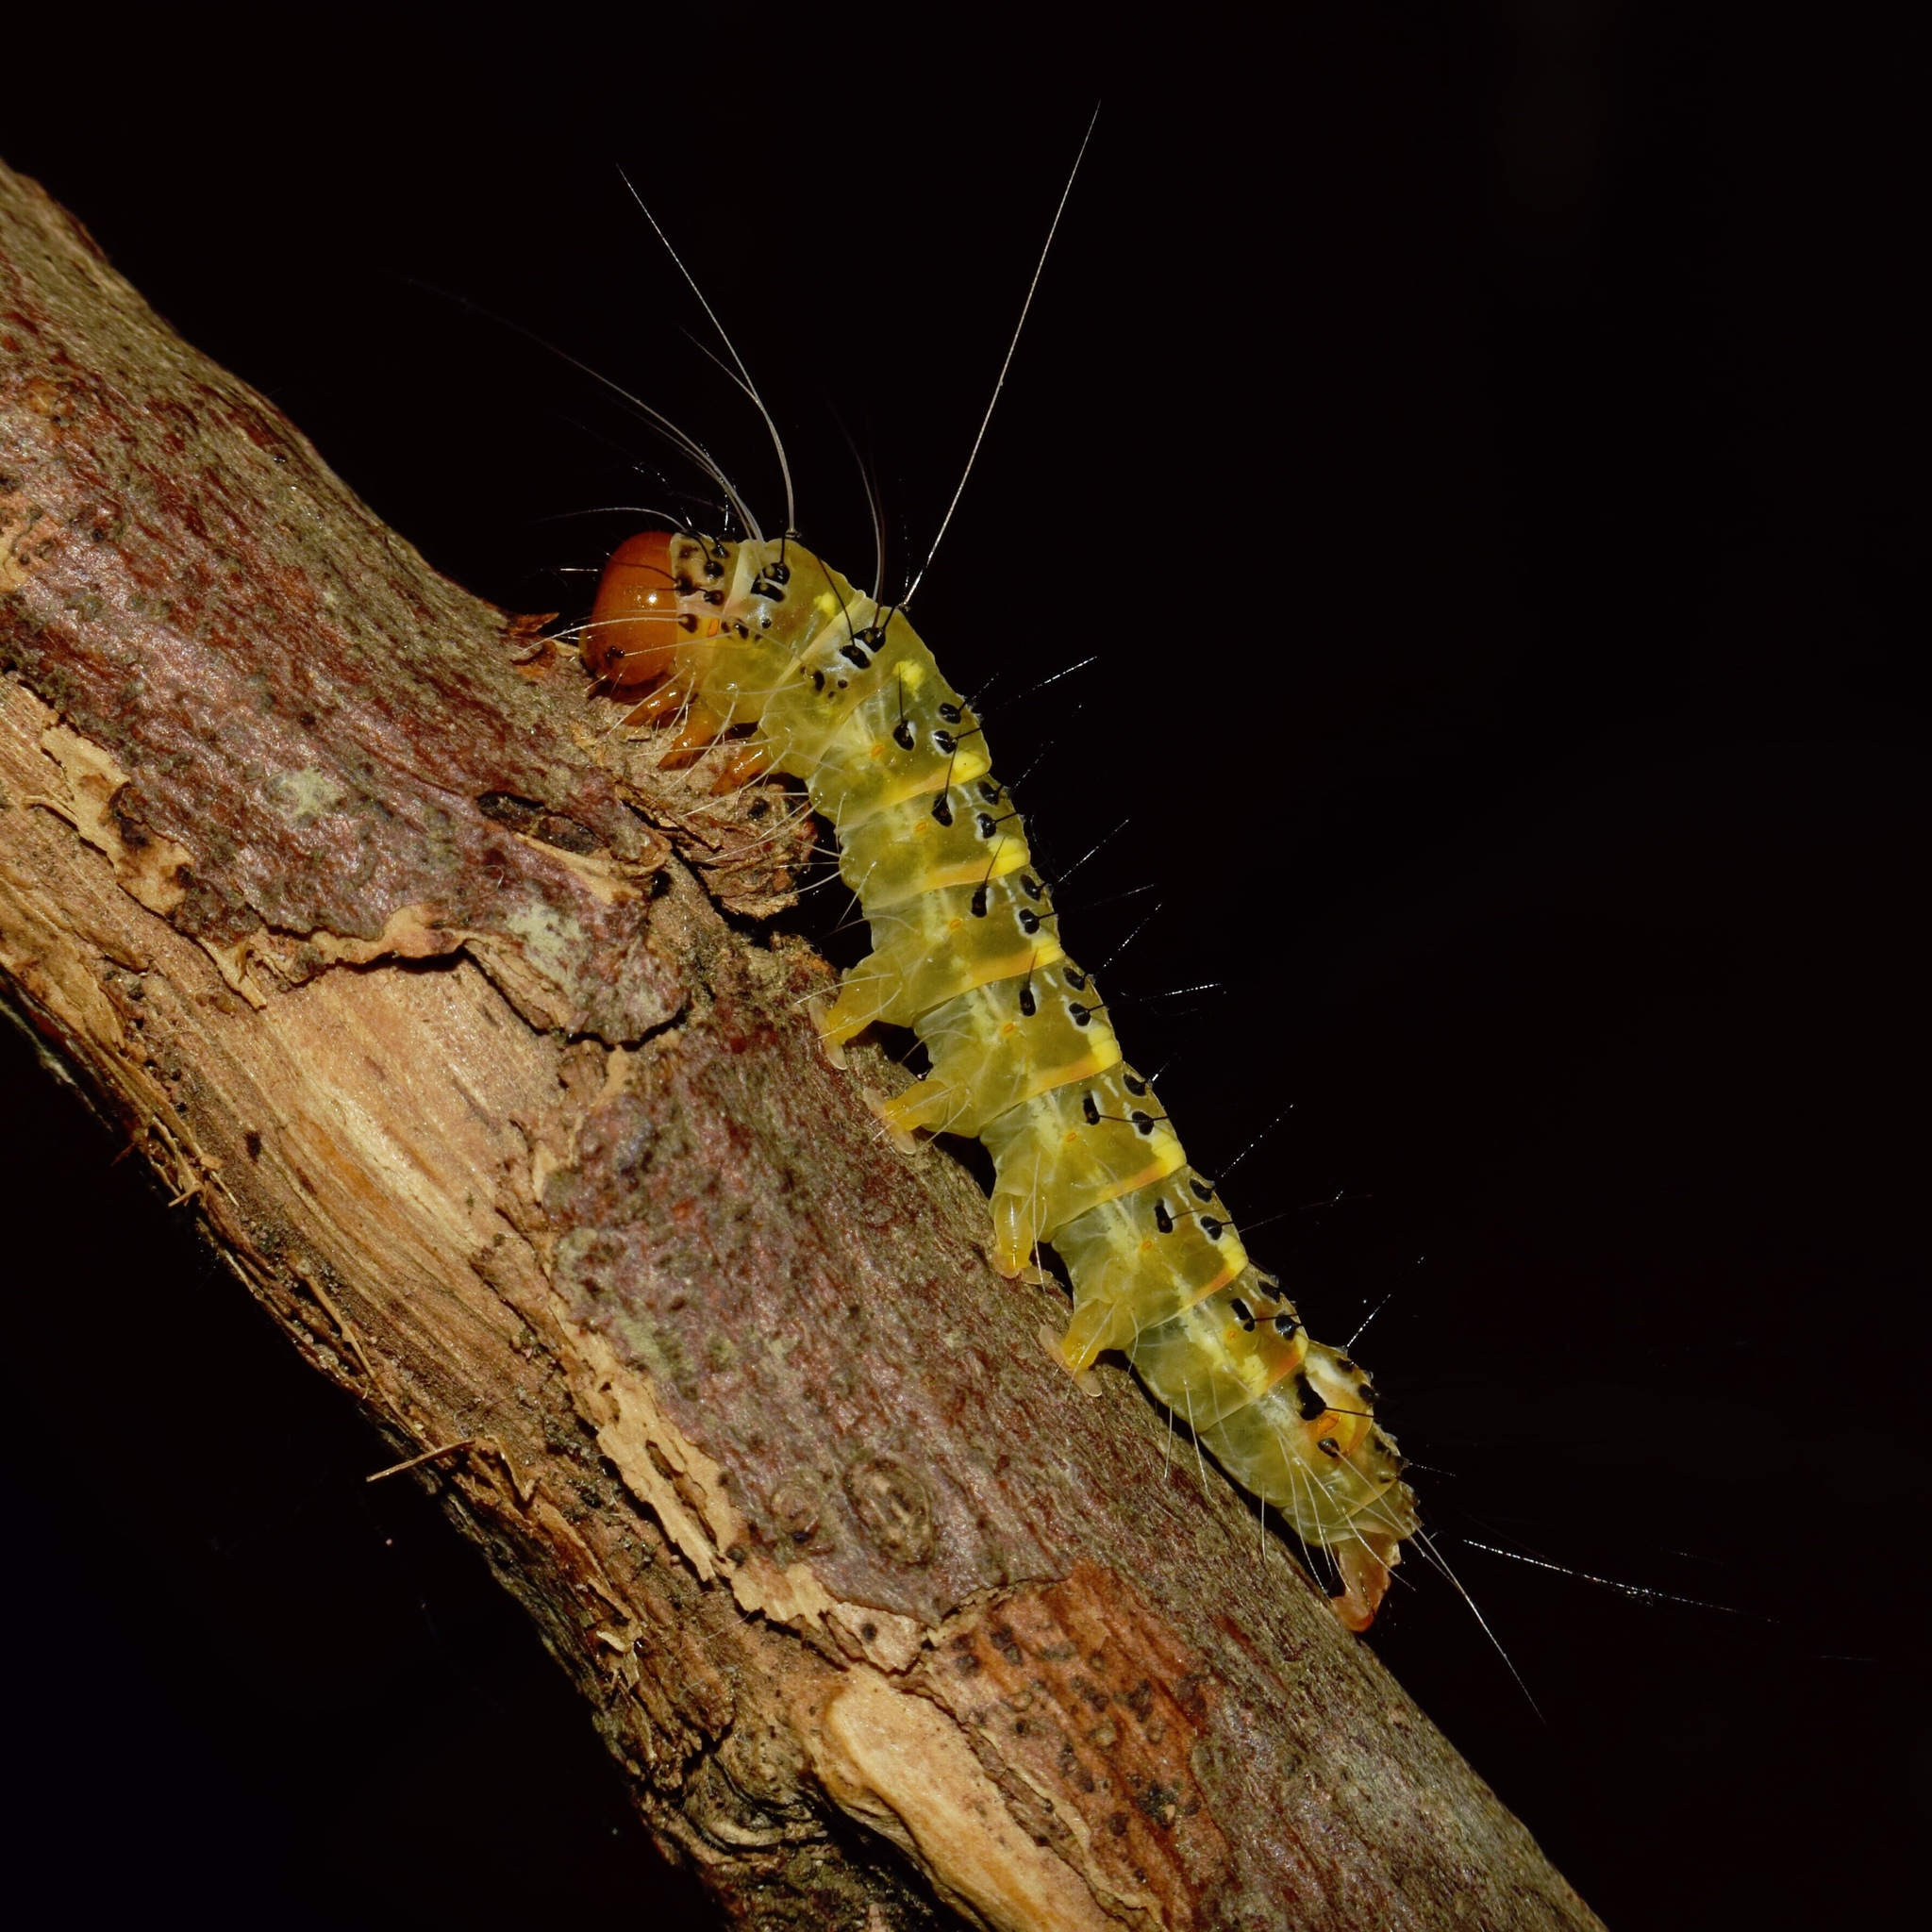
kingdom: Animalia
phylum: Arthropoda
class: Insecta
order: Lepidoptera
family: Erebidae
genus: Amerila
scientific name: Amerila bubo
